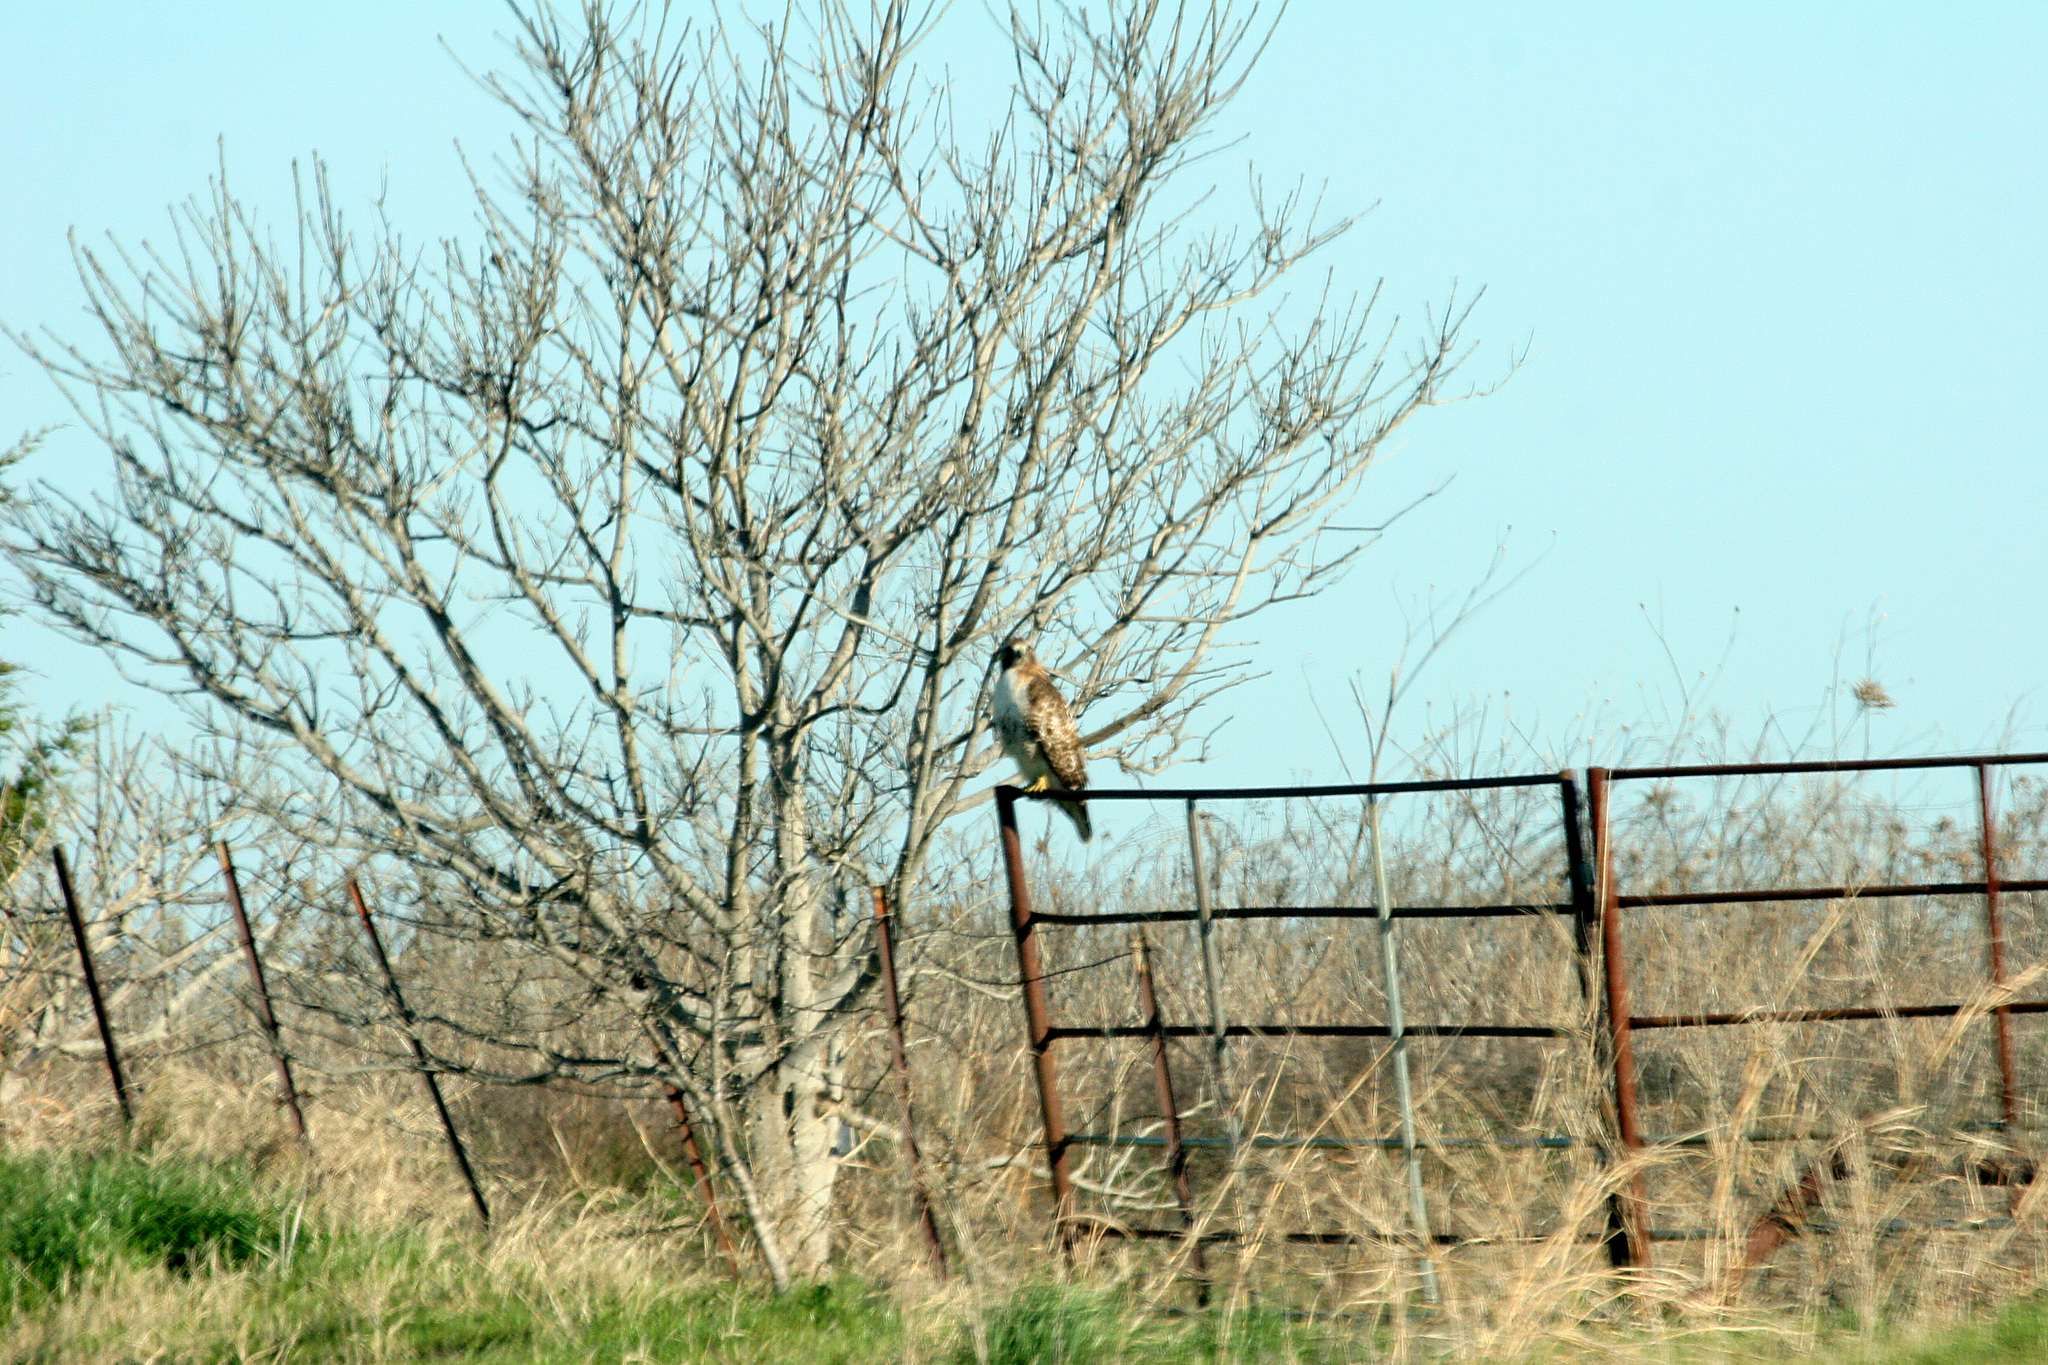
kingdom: Animalia
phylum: Chordata
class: Aves
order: Accipitriformes
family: Accipitridae
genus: Buteo
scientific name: Buteo jamaicensis
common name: Red-tailed hawk
